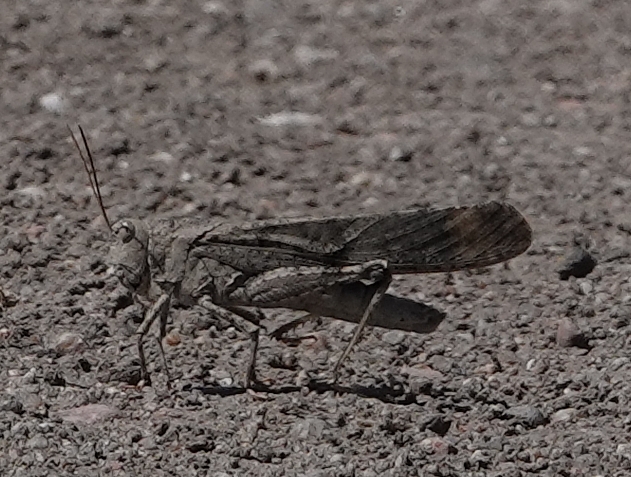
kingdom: Animalia
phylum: Arthropoda
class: Insecta
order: Orthoptera
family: Acrididae
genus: Dissosteira
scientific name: Dissosteira carolina
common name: Carolina grasshopper
